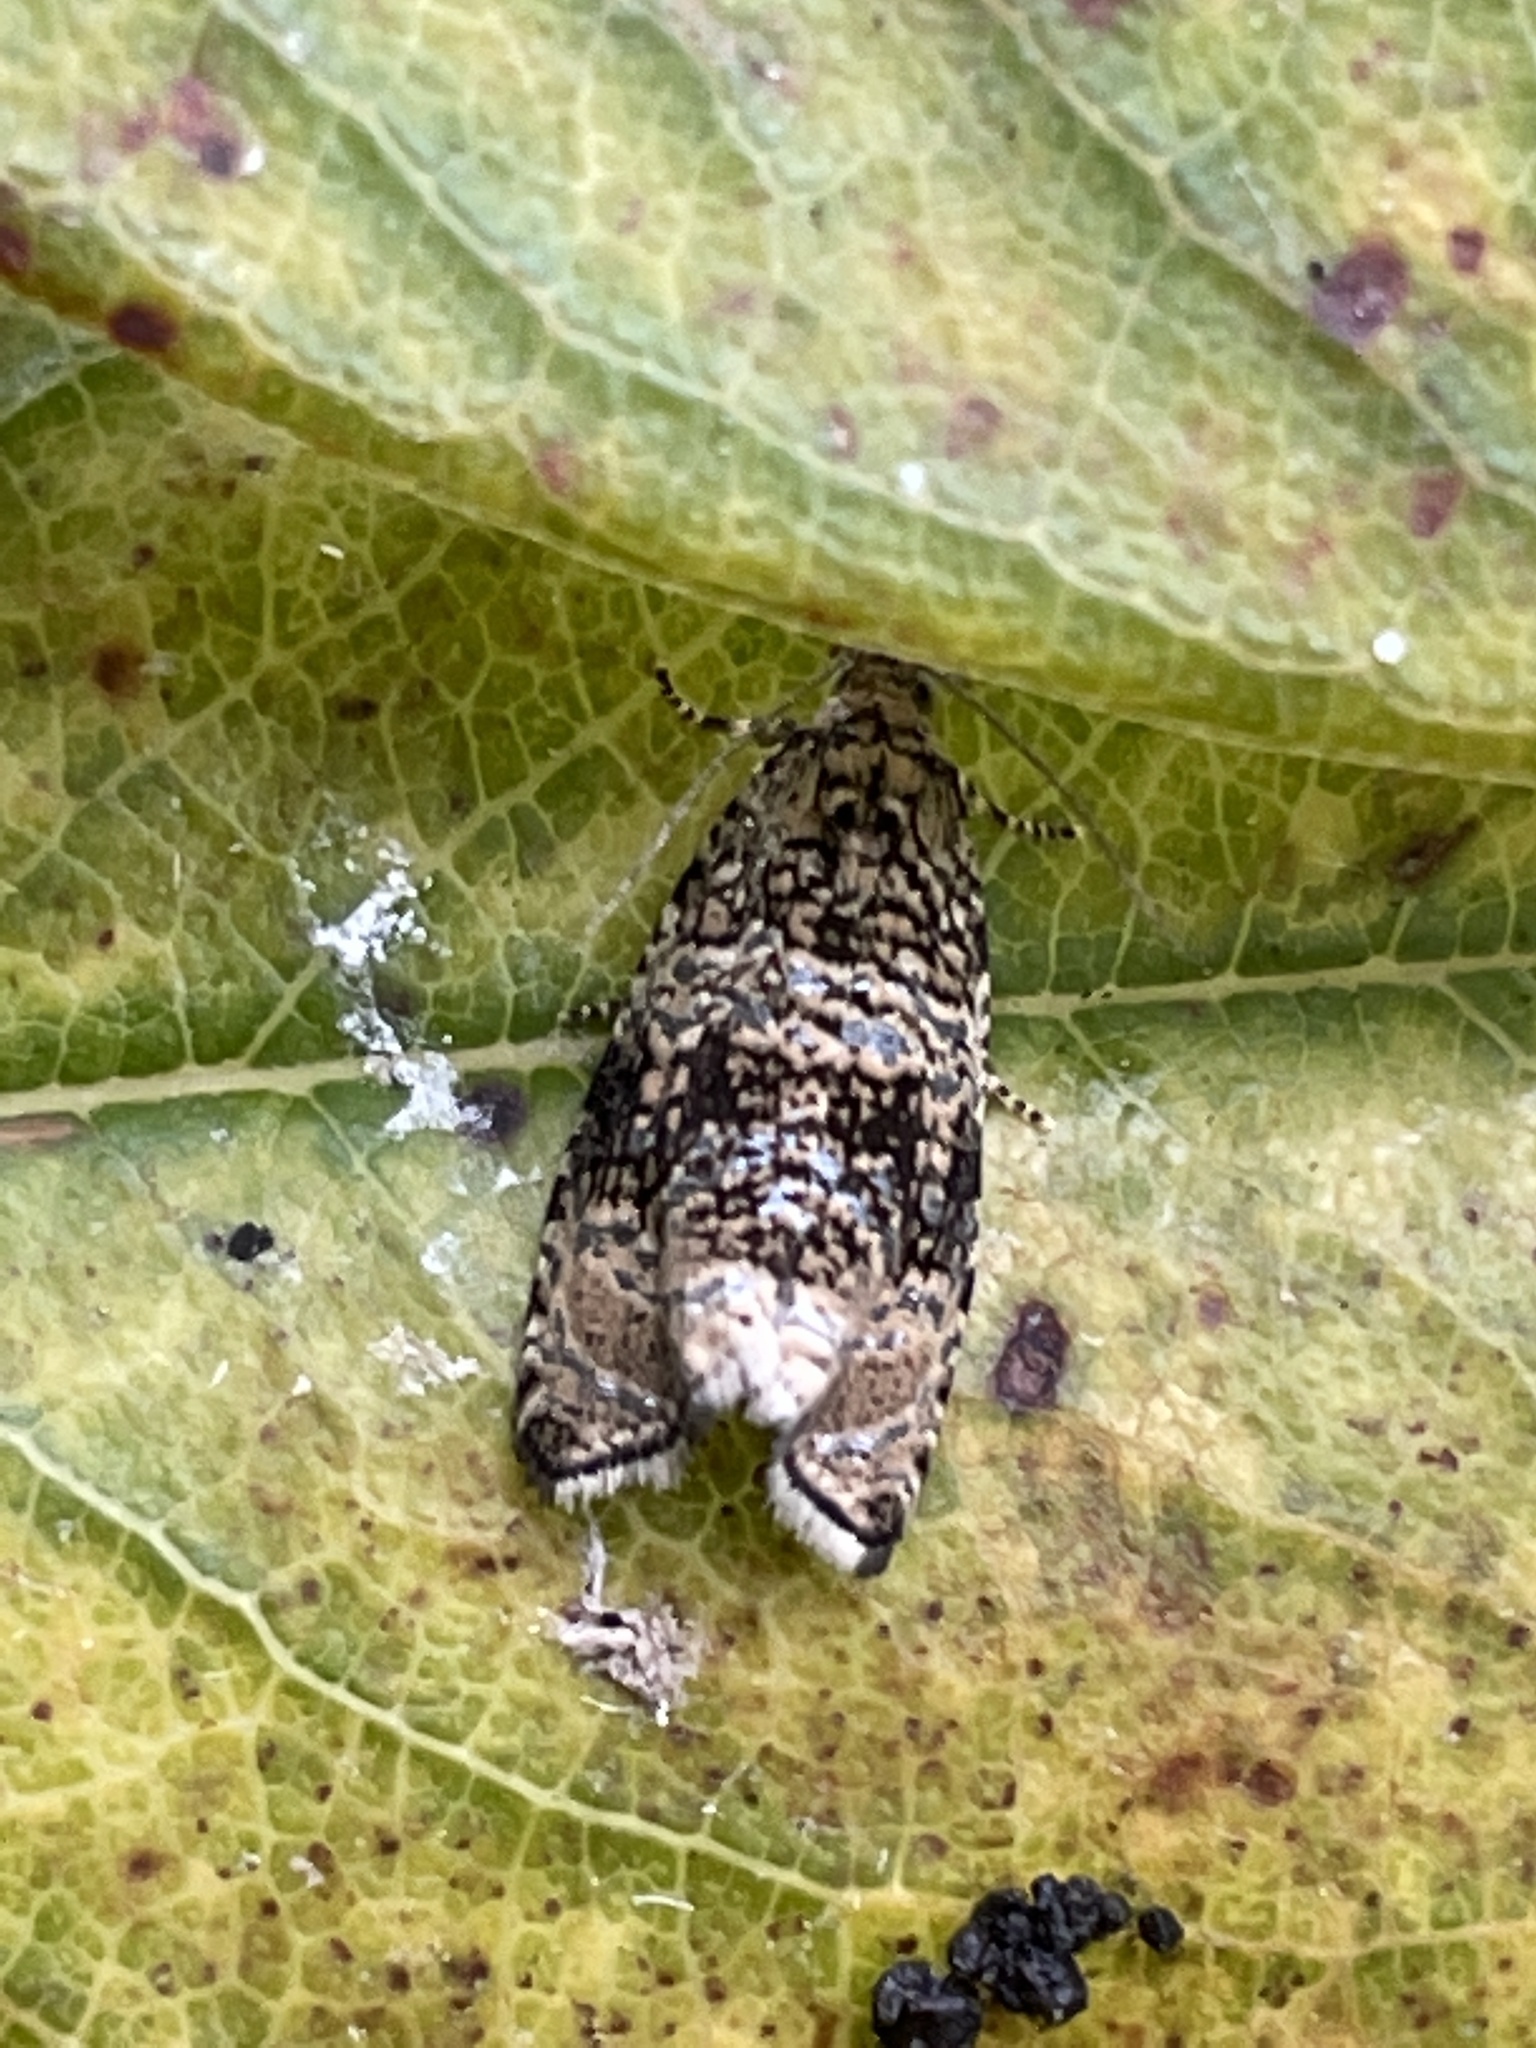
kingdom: Animalia
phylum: Arthropoda
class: Insecta
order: Lepidoptera
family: Tortricidae
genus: Syricoris
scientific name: Syricoris lacunana
